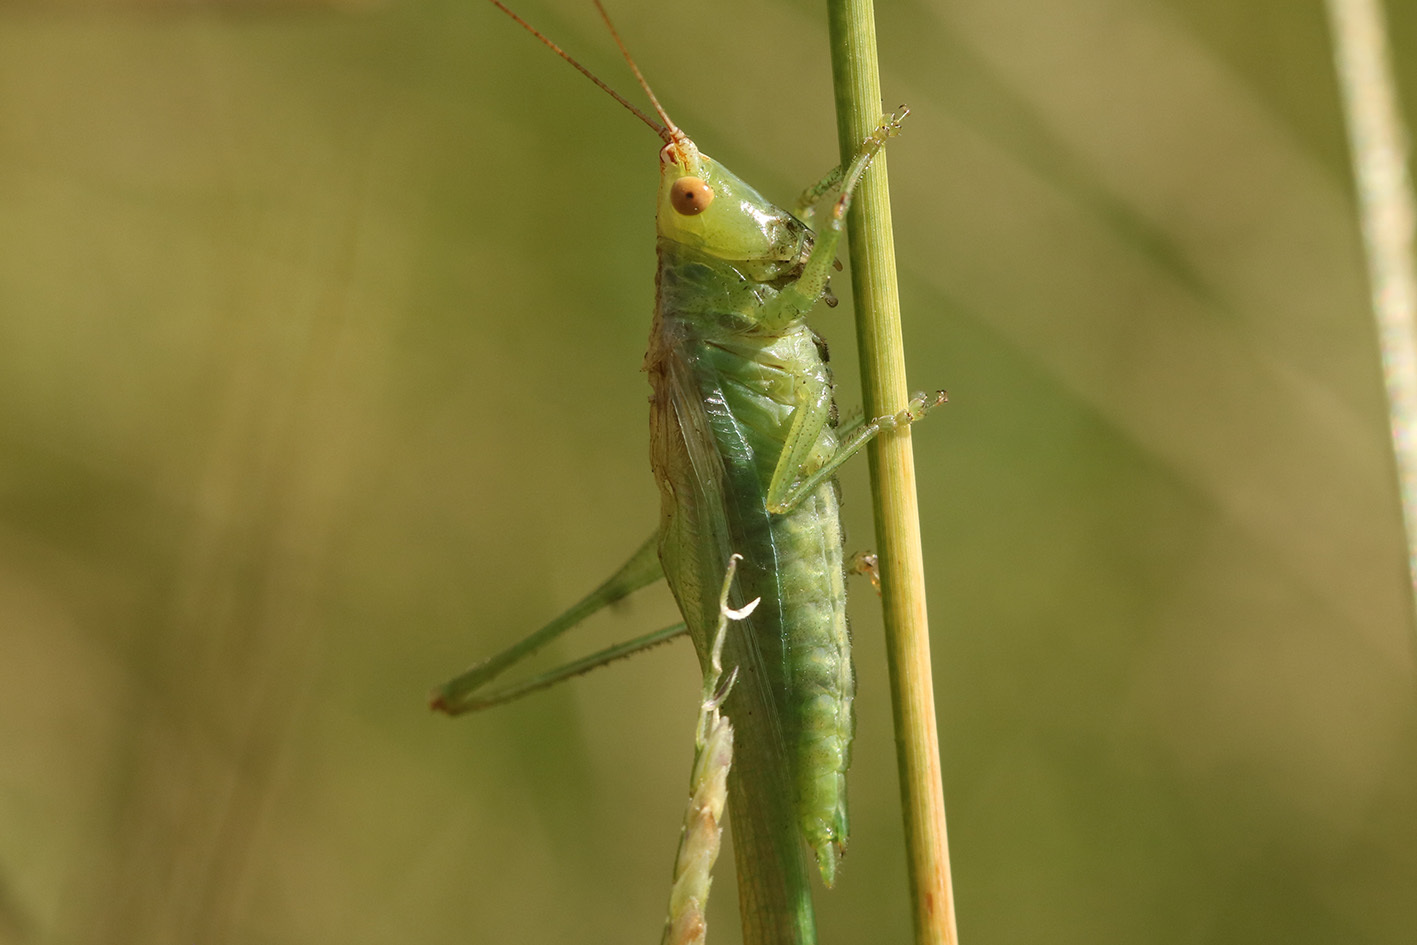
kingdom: Animalia
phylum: Arthropoda
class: Insecta
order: Orthoptera
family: Tettigoniidae
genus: Conocephalus
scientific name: Conocephalus longipes
